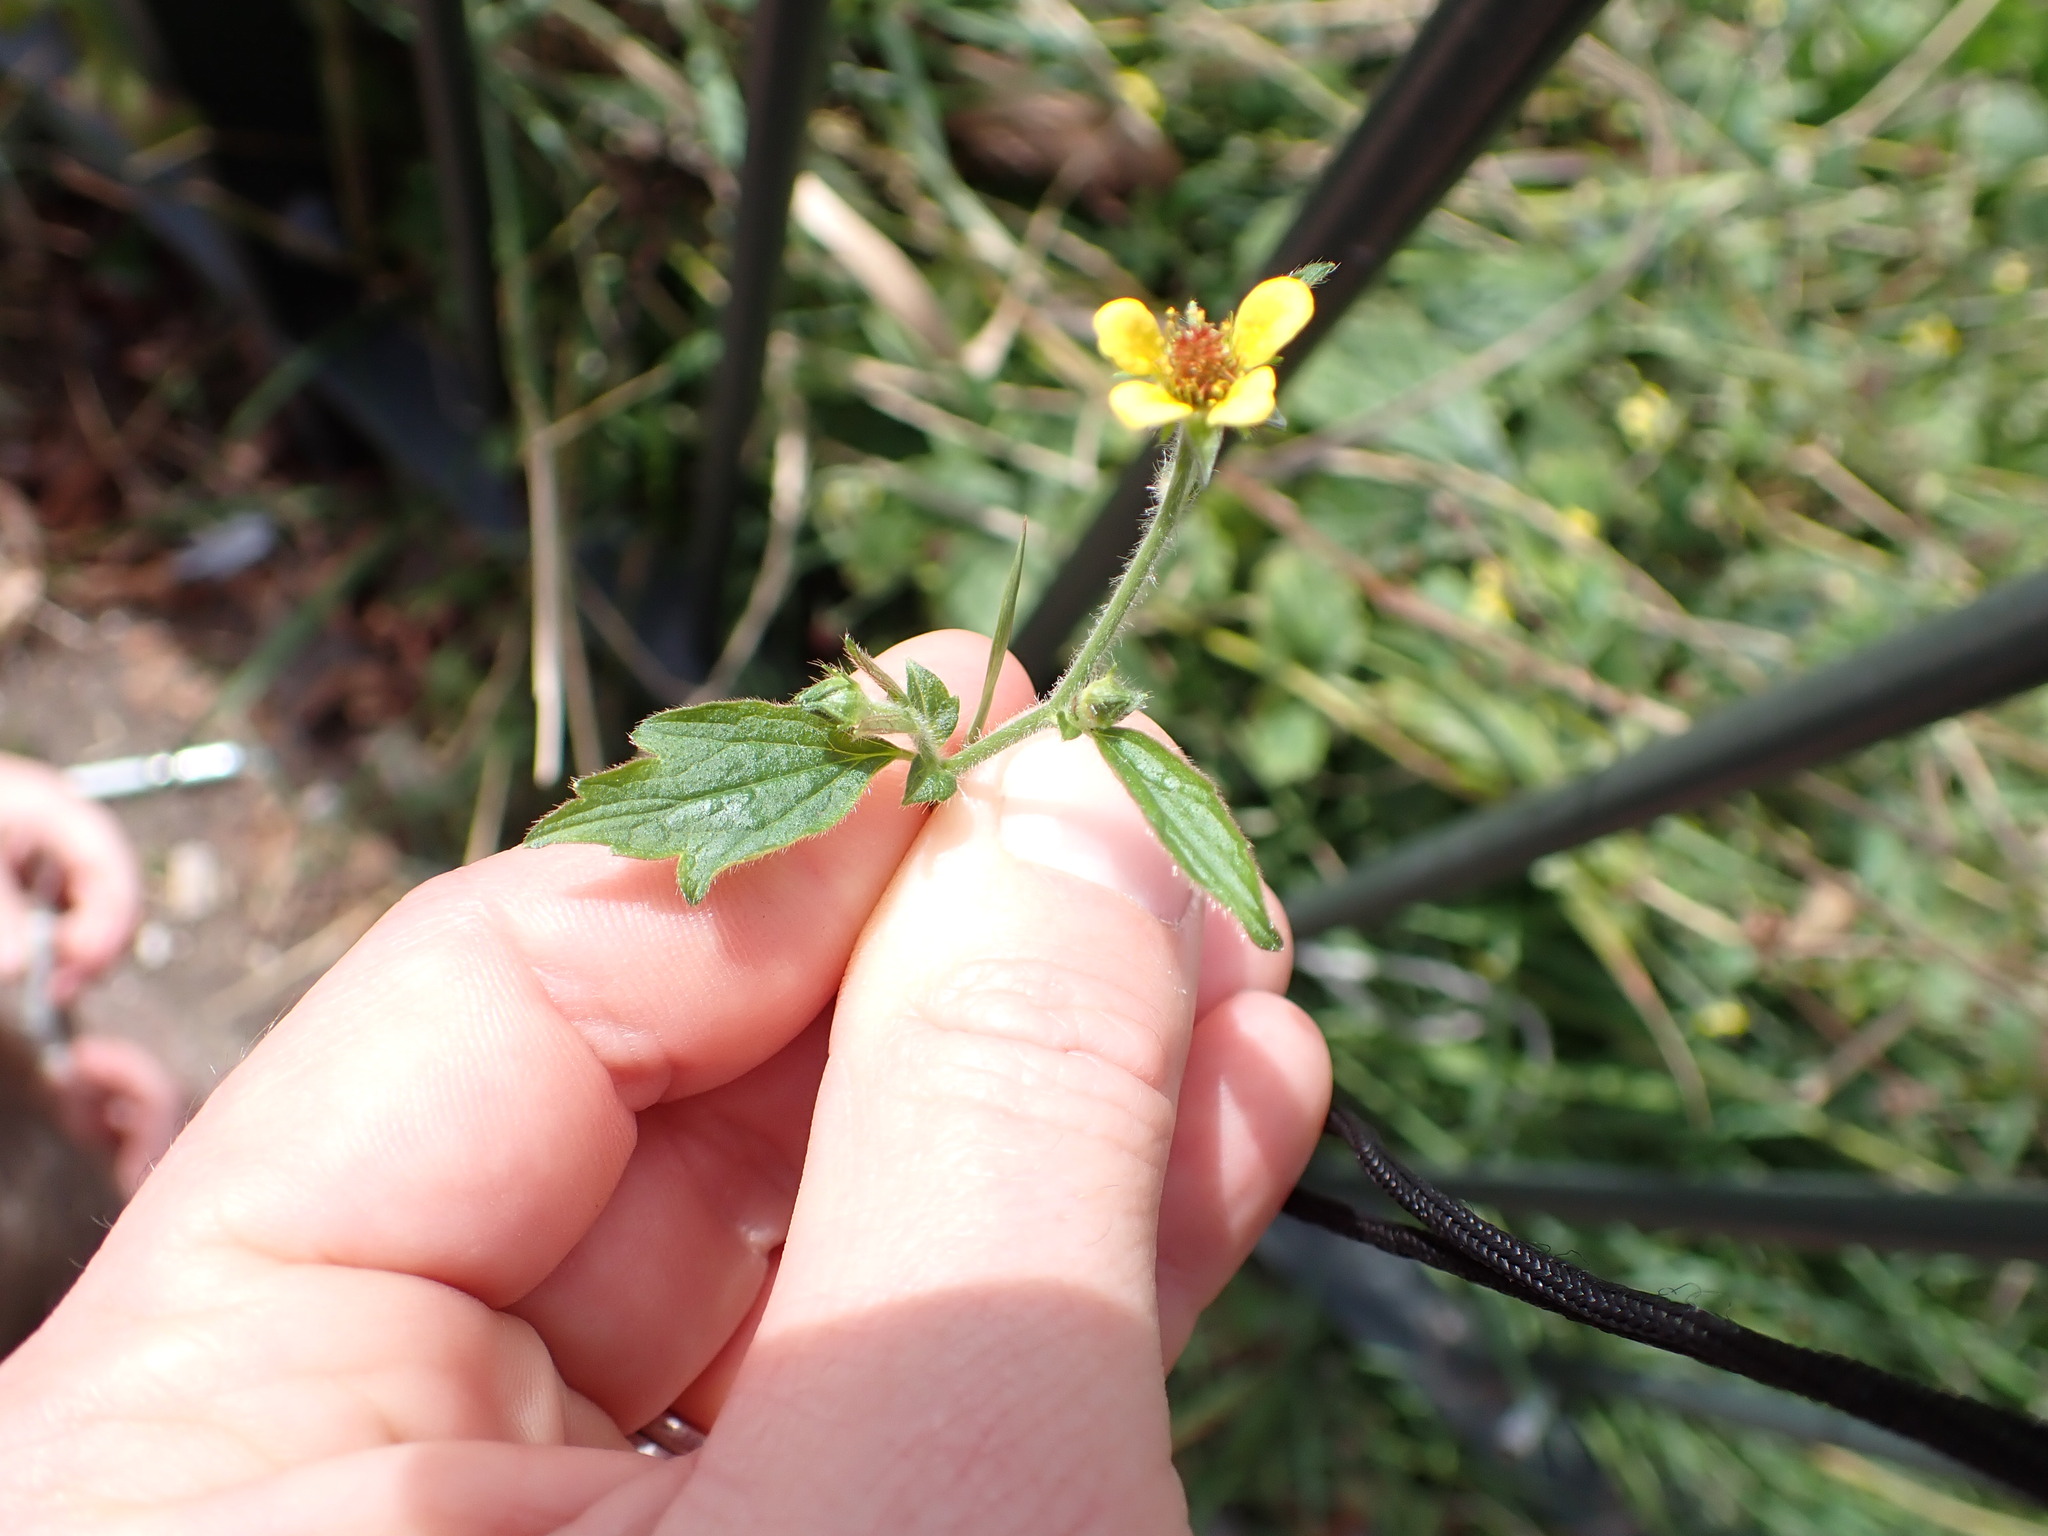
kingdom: Plantae
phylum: Tracheophyta
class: Magnoliopsida
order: Rosales
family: Rosaceae
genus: Geum
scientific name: Geum urbanum
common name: Wood avens
